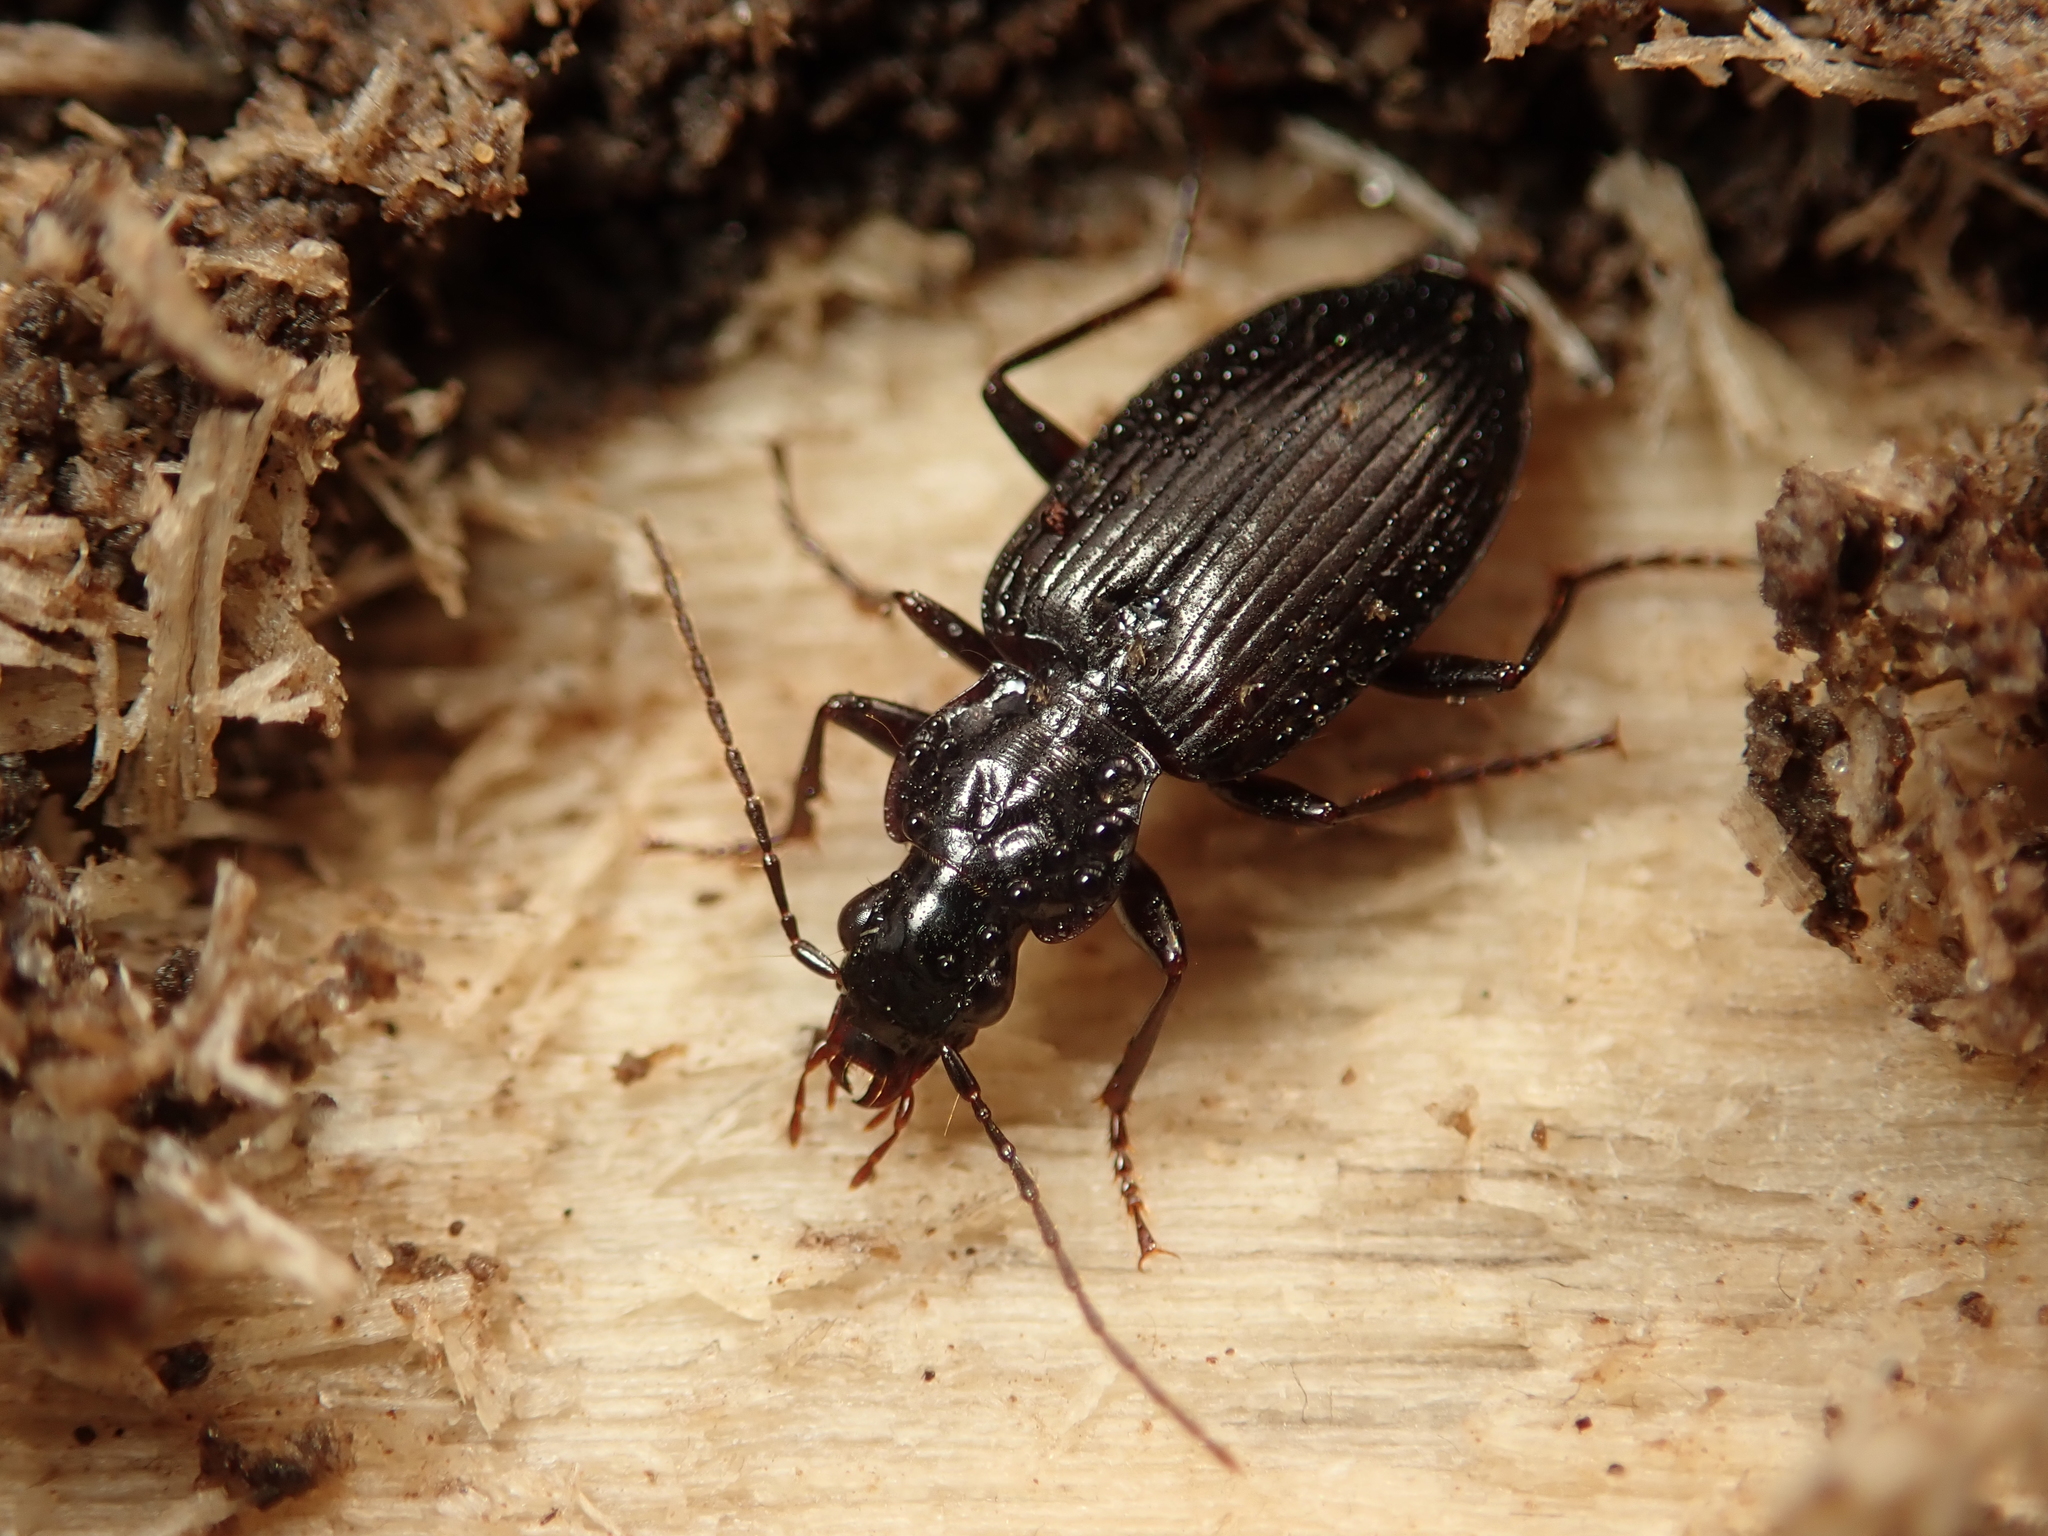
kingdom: Animalia
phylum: Arthropoda
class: Insecta
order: Coleoptera
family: Carabidae
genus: Platynus
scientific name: Platynus assimilis
